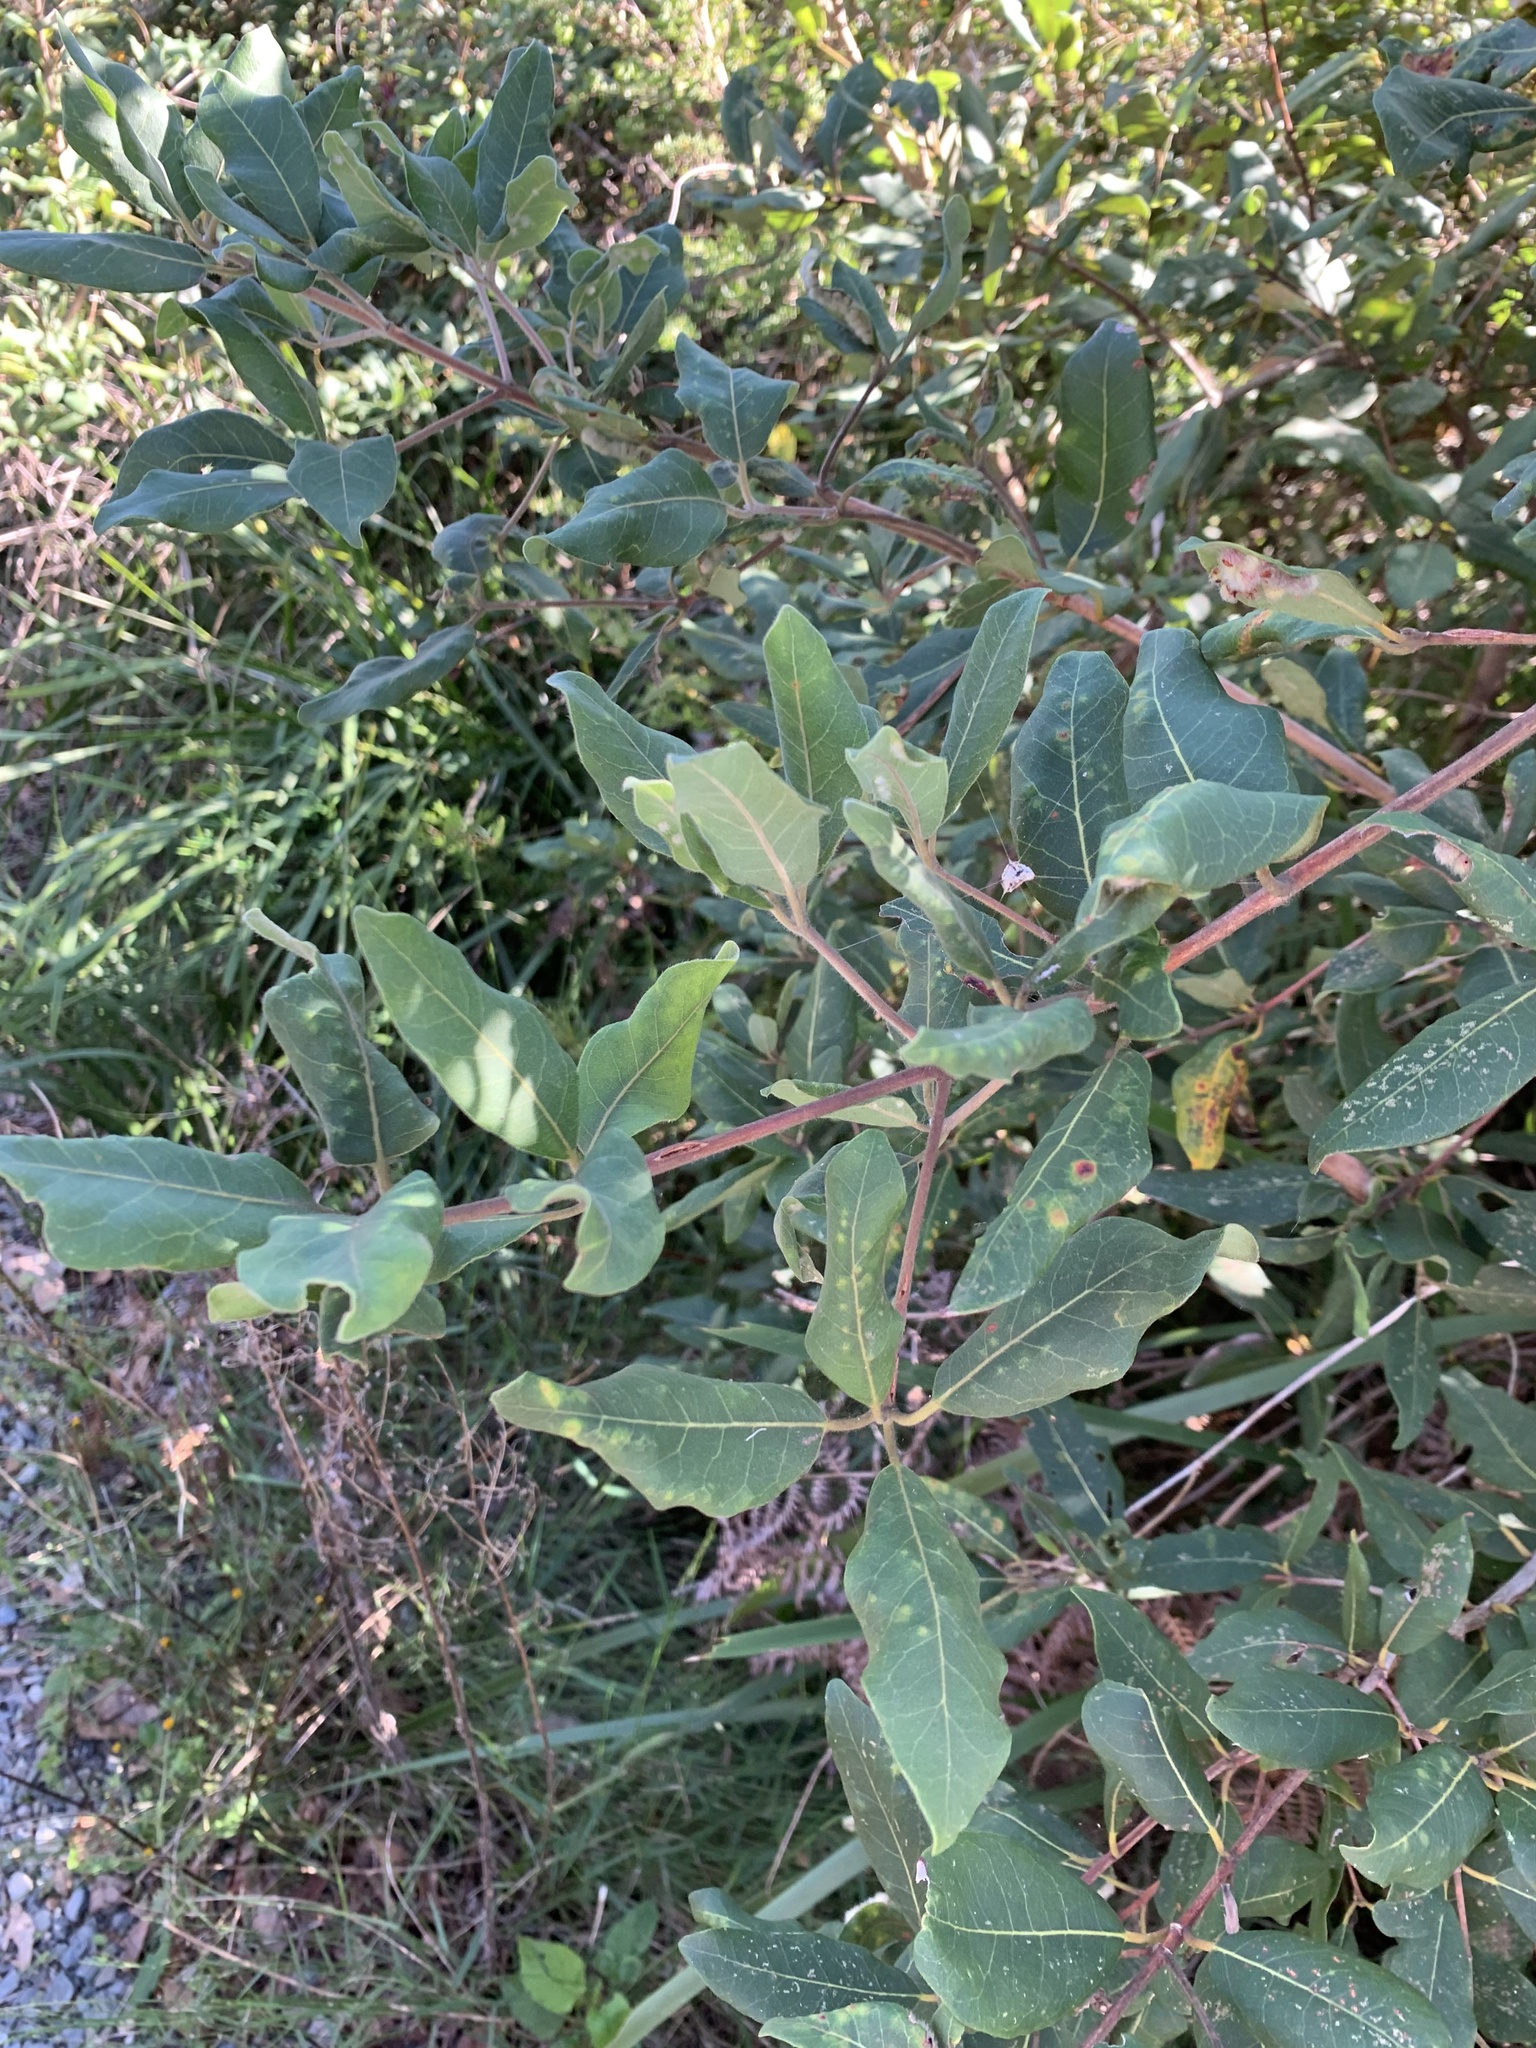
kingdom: Plantae
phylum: Tracheophyta
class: Magnoliopsida
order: Myrtales
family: Myrtaceae
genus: Syncarpia
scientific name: Syncarpia glomulifera
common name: Turpentine tree
